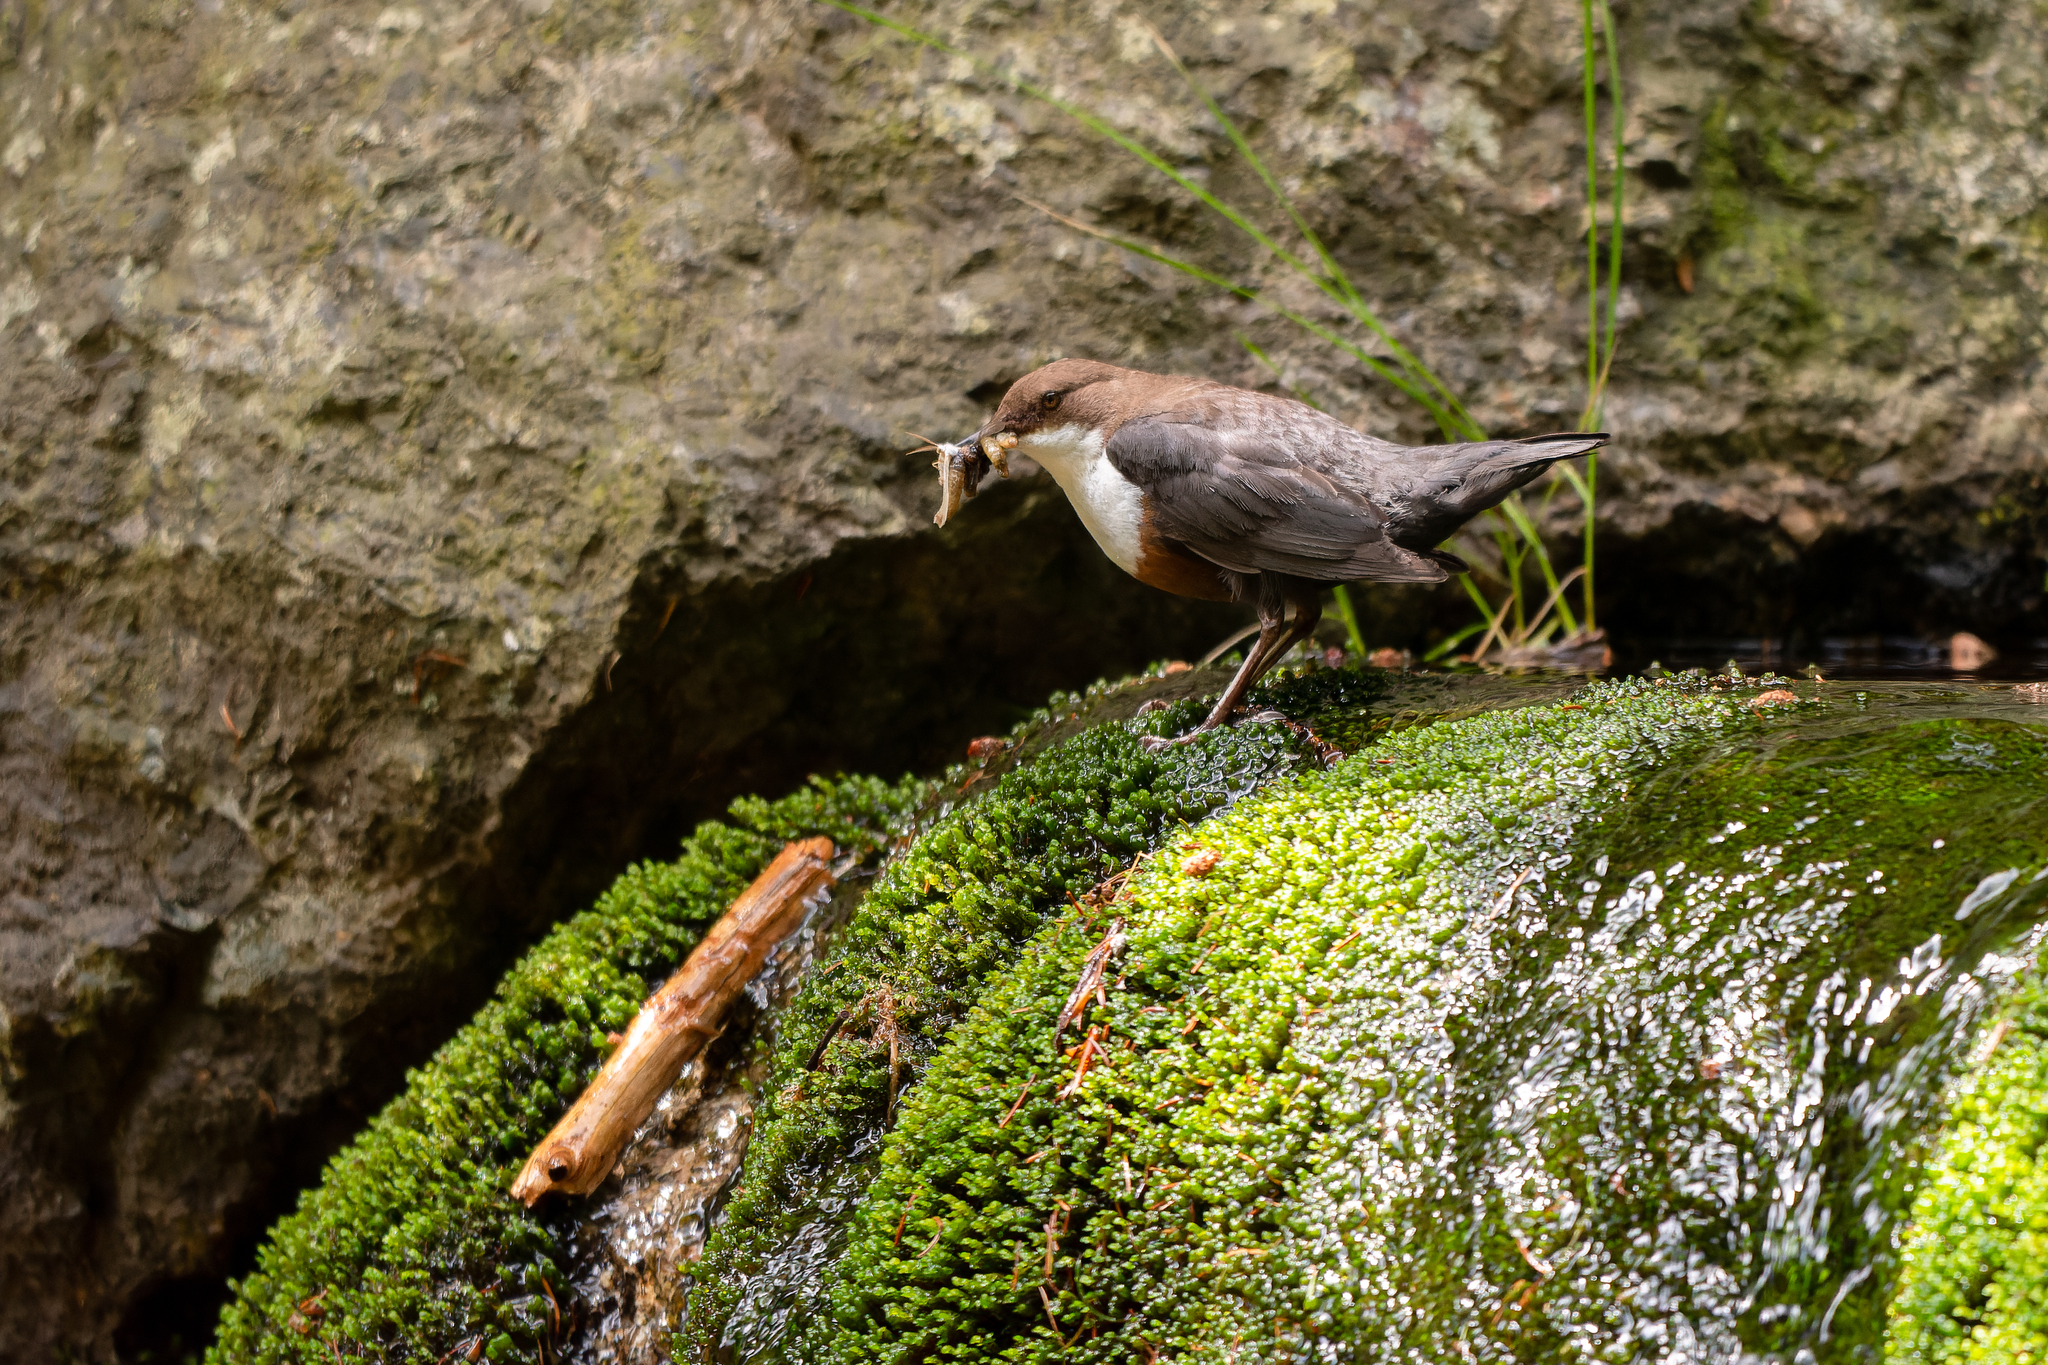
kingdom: Animalia
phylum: Chordata
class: Aves
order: Passeriformes
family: Cinclidae
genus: Cinclus
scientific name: Cinclus cinclus
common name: White-throated dipper
